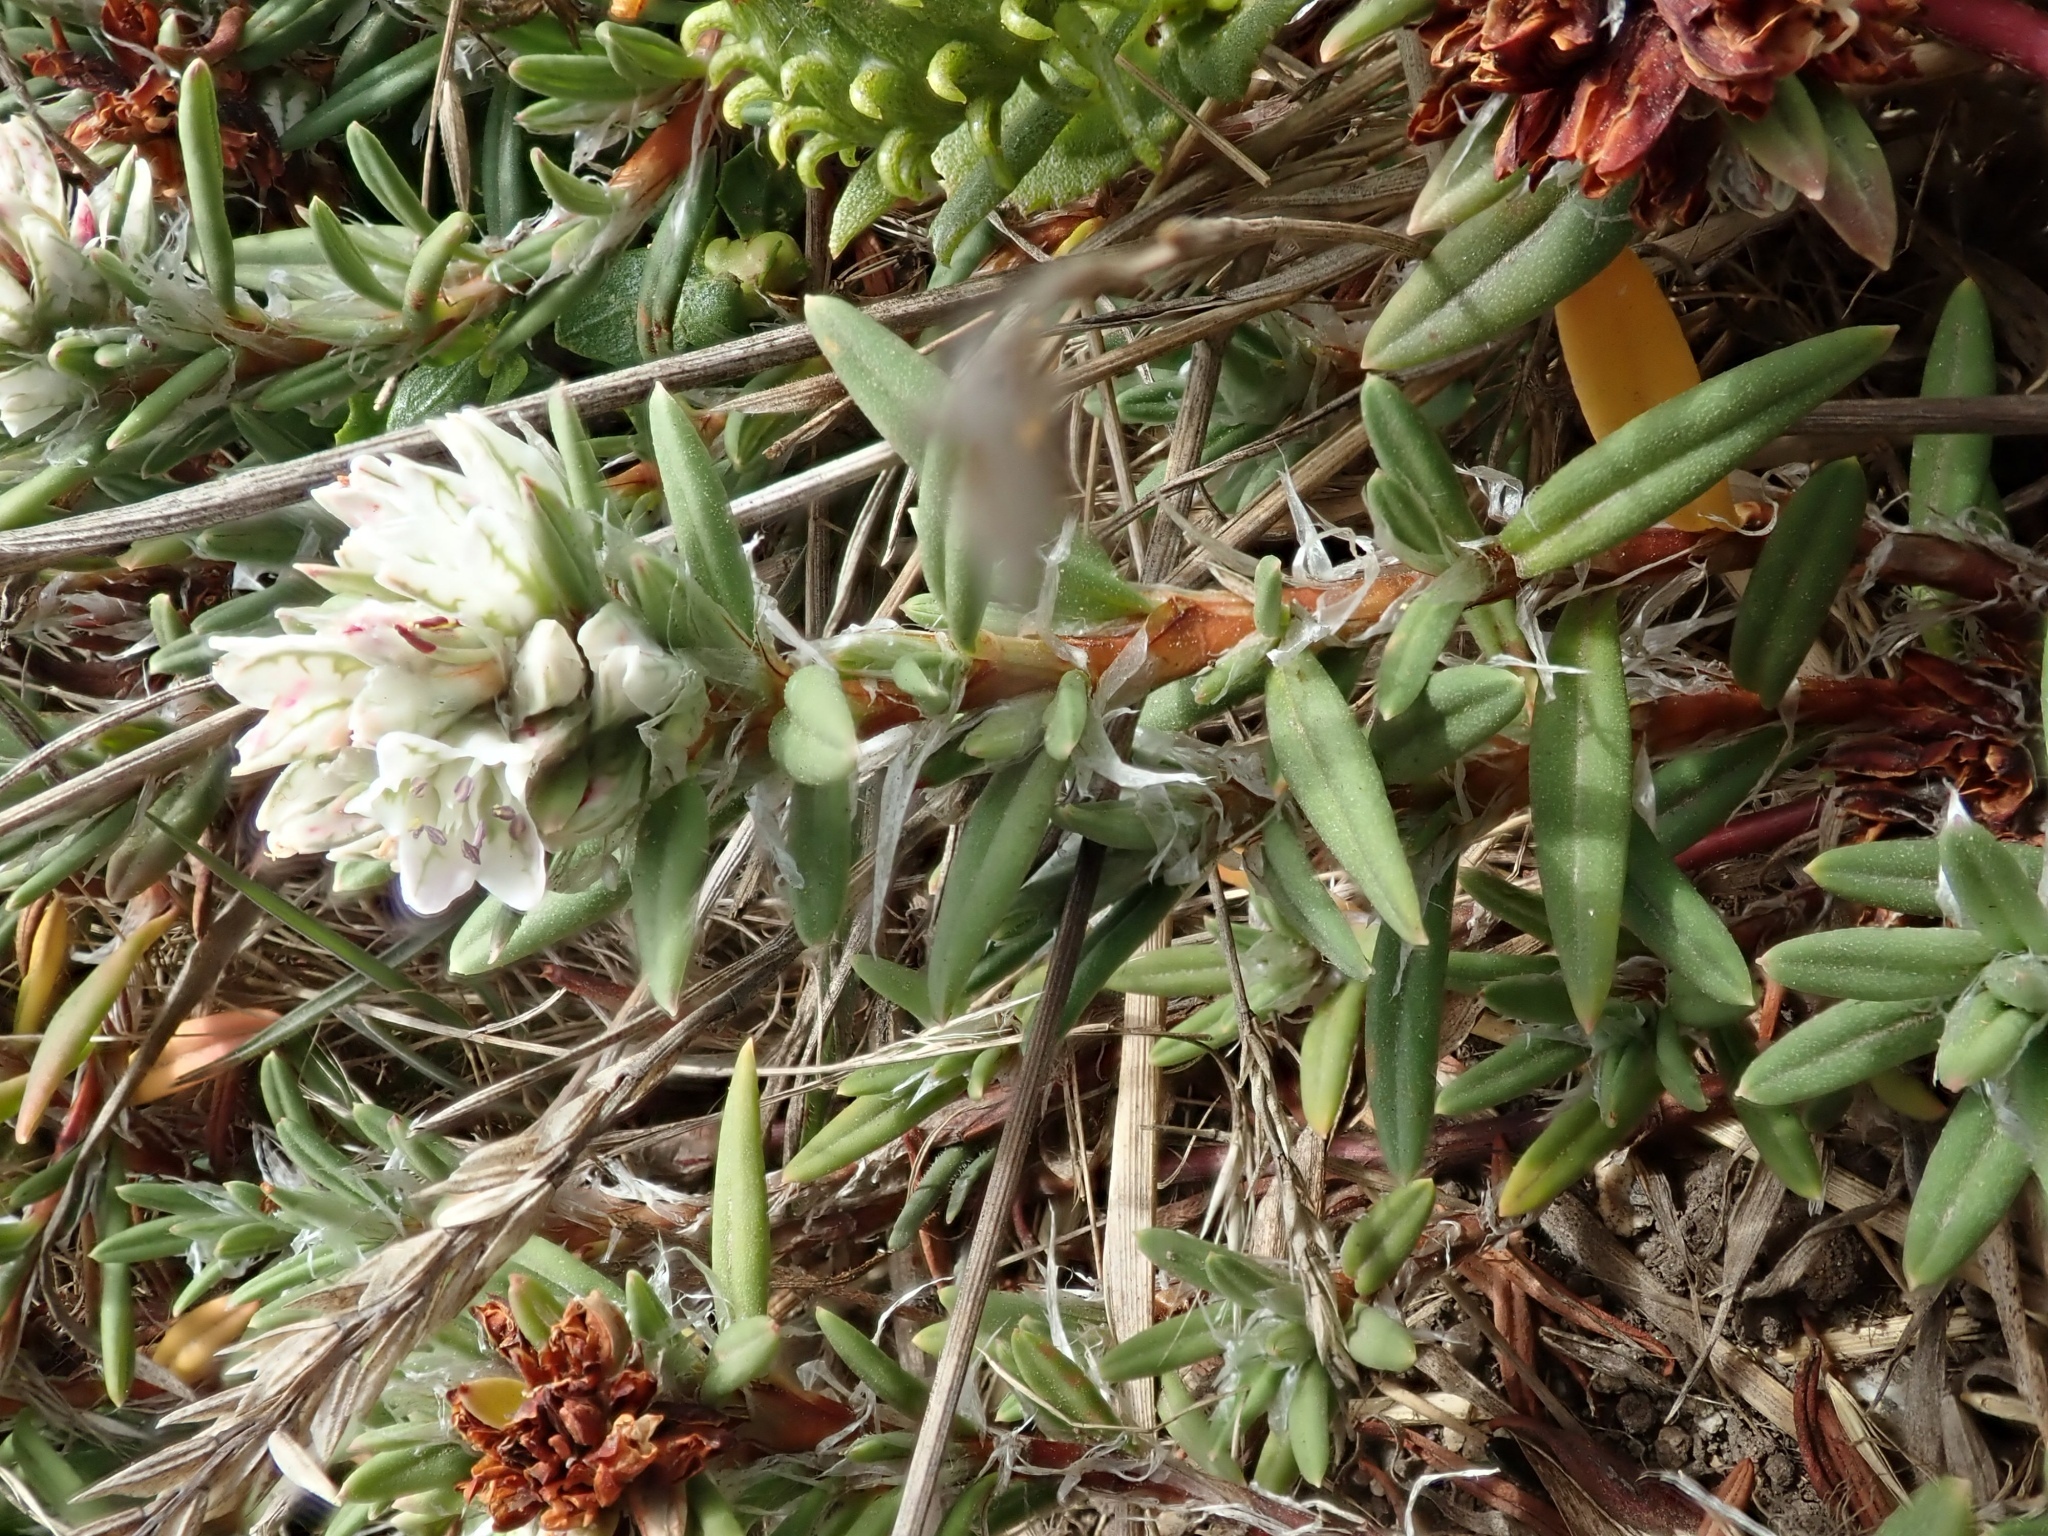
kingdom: Plantae
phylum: Tracheophyta
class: Magnoliopsida
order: Caryophyllales
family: Polygonaceae
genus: Polygonum
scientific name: Polygonum paronychia
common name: Dune knotweed
